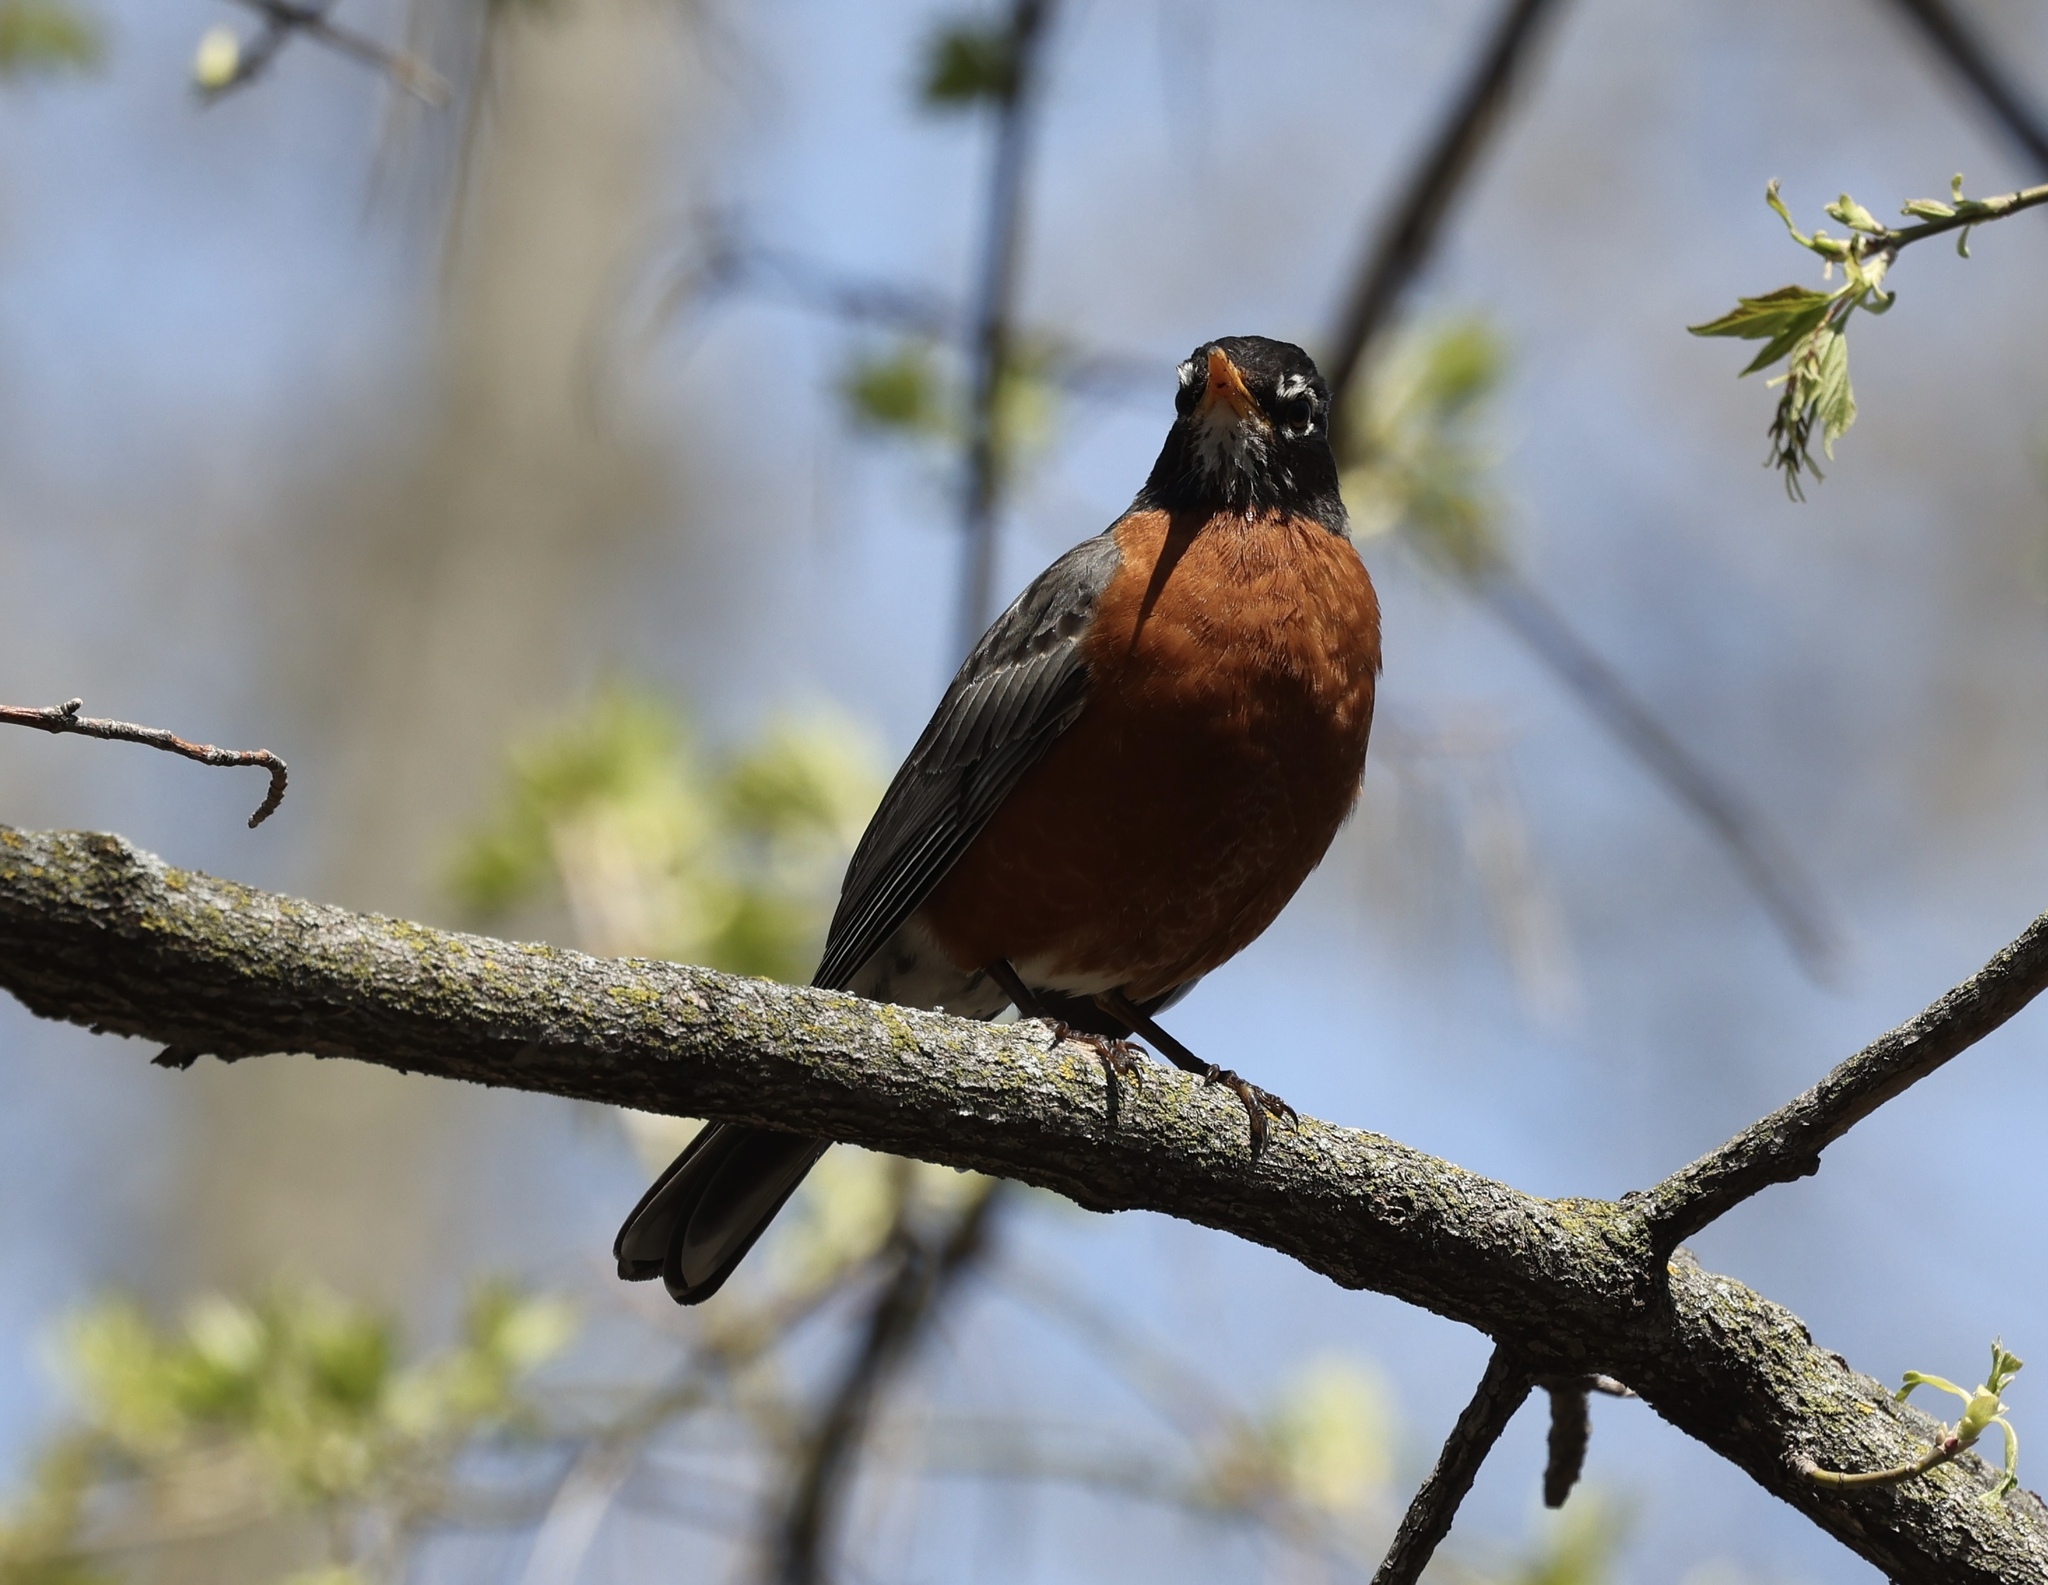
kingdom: Animalia
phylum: Chordata
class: Aves
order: Passeriformes
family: Turdidae
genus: Turdus
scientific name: Turdus migratorius
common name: American robin
